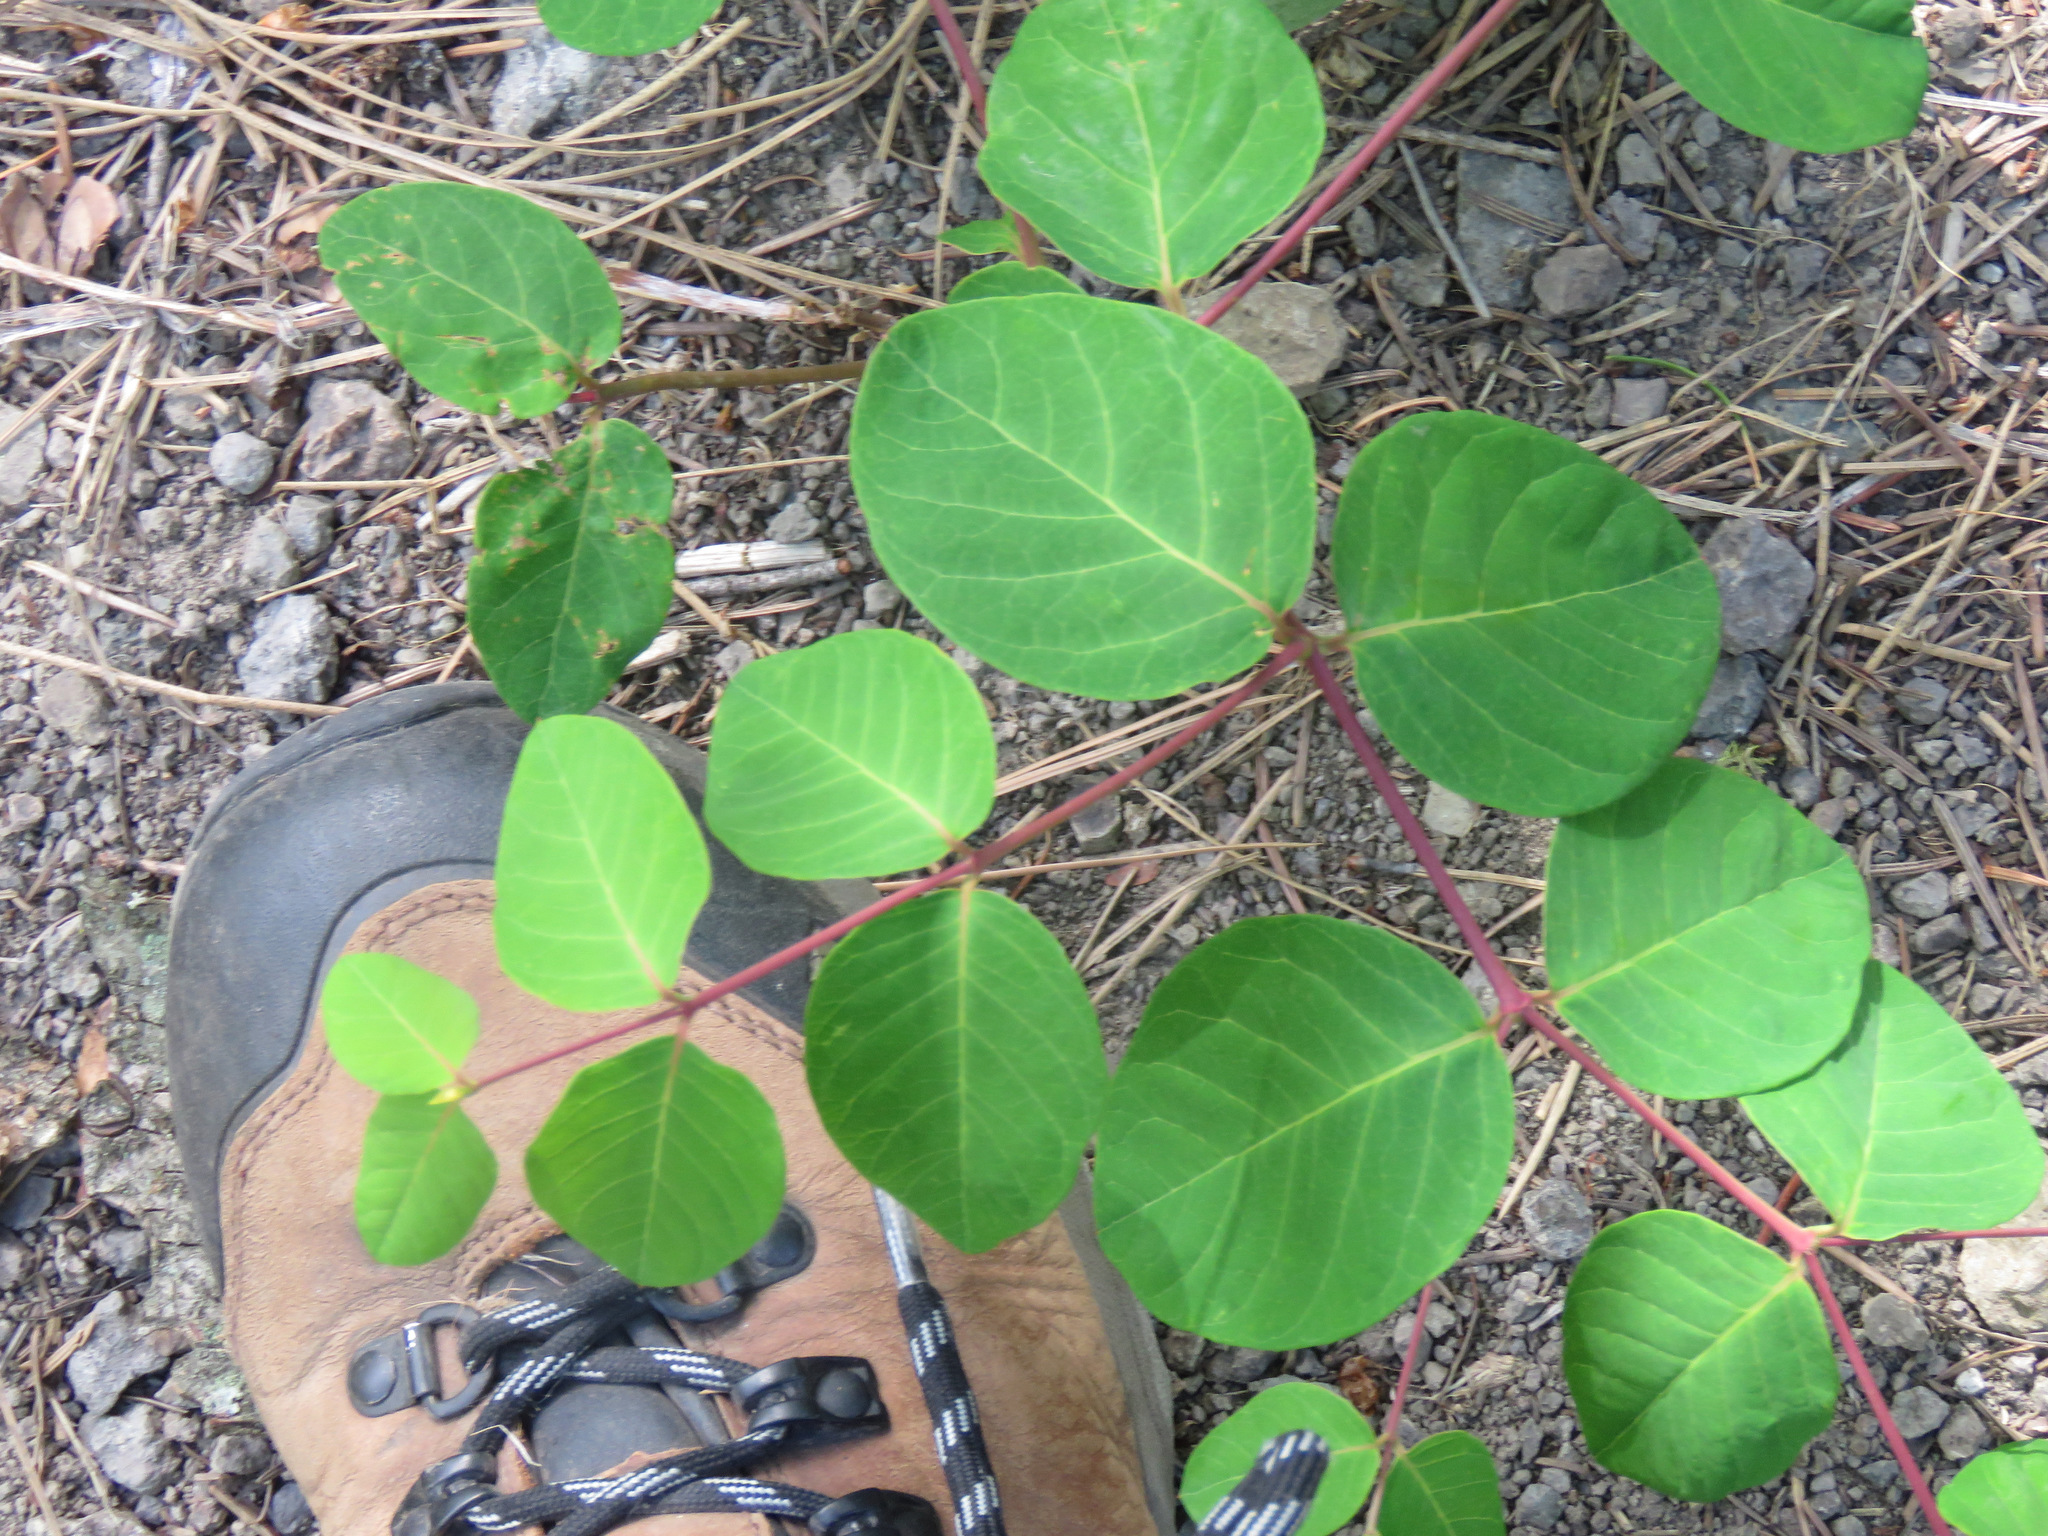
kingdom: Plantae
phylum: Tracheophyta
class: Magnoliopsida
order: Gentianales
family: Apocynaceae
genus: Apocynum
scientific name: Apocynum androsaemifolium
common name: Spreading dogbane
